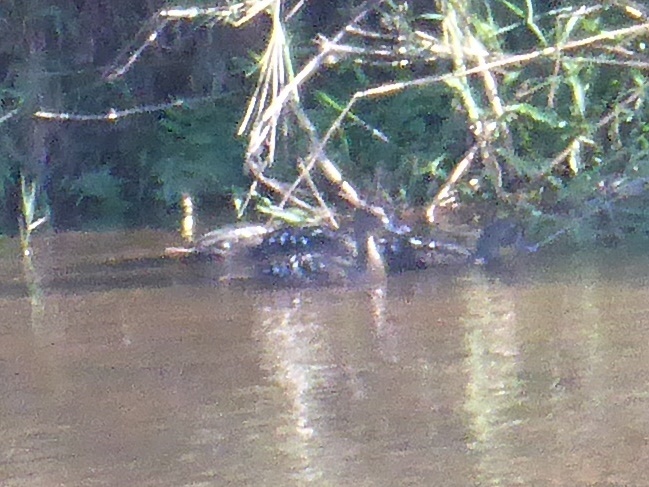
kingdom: Animalia
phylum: Chordata
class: Aves
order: Anseriformes
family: Anatidae
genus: Anas
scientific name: Anas sparsa
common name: African black duck
